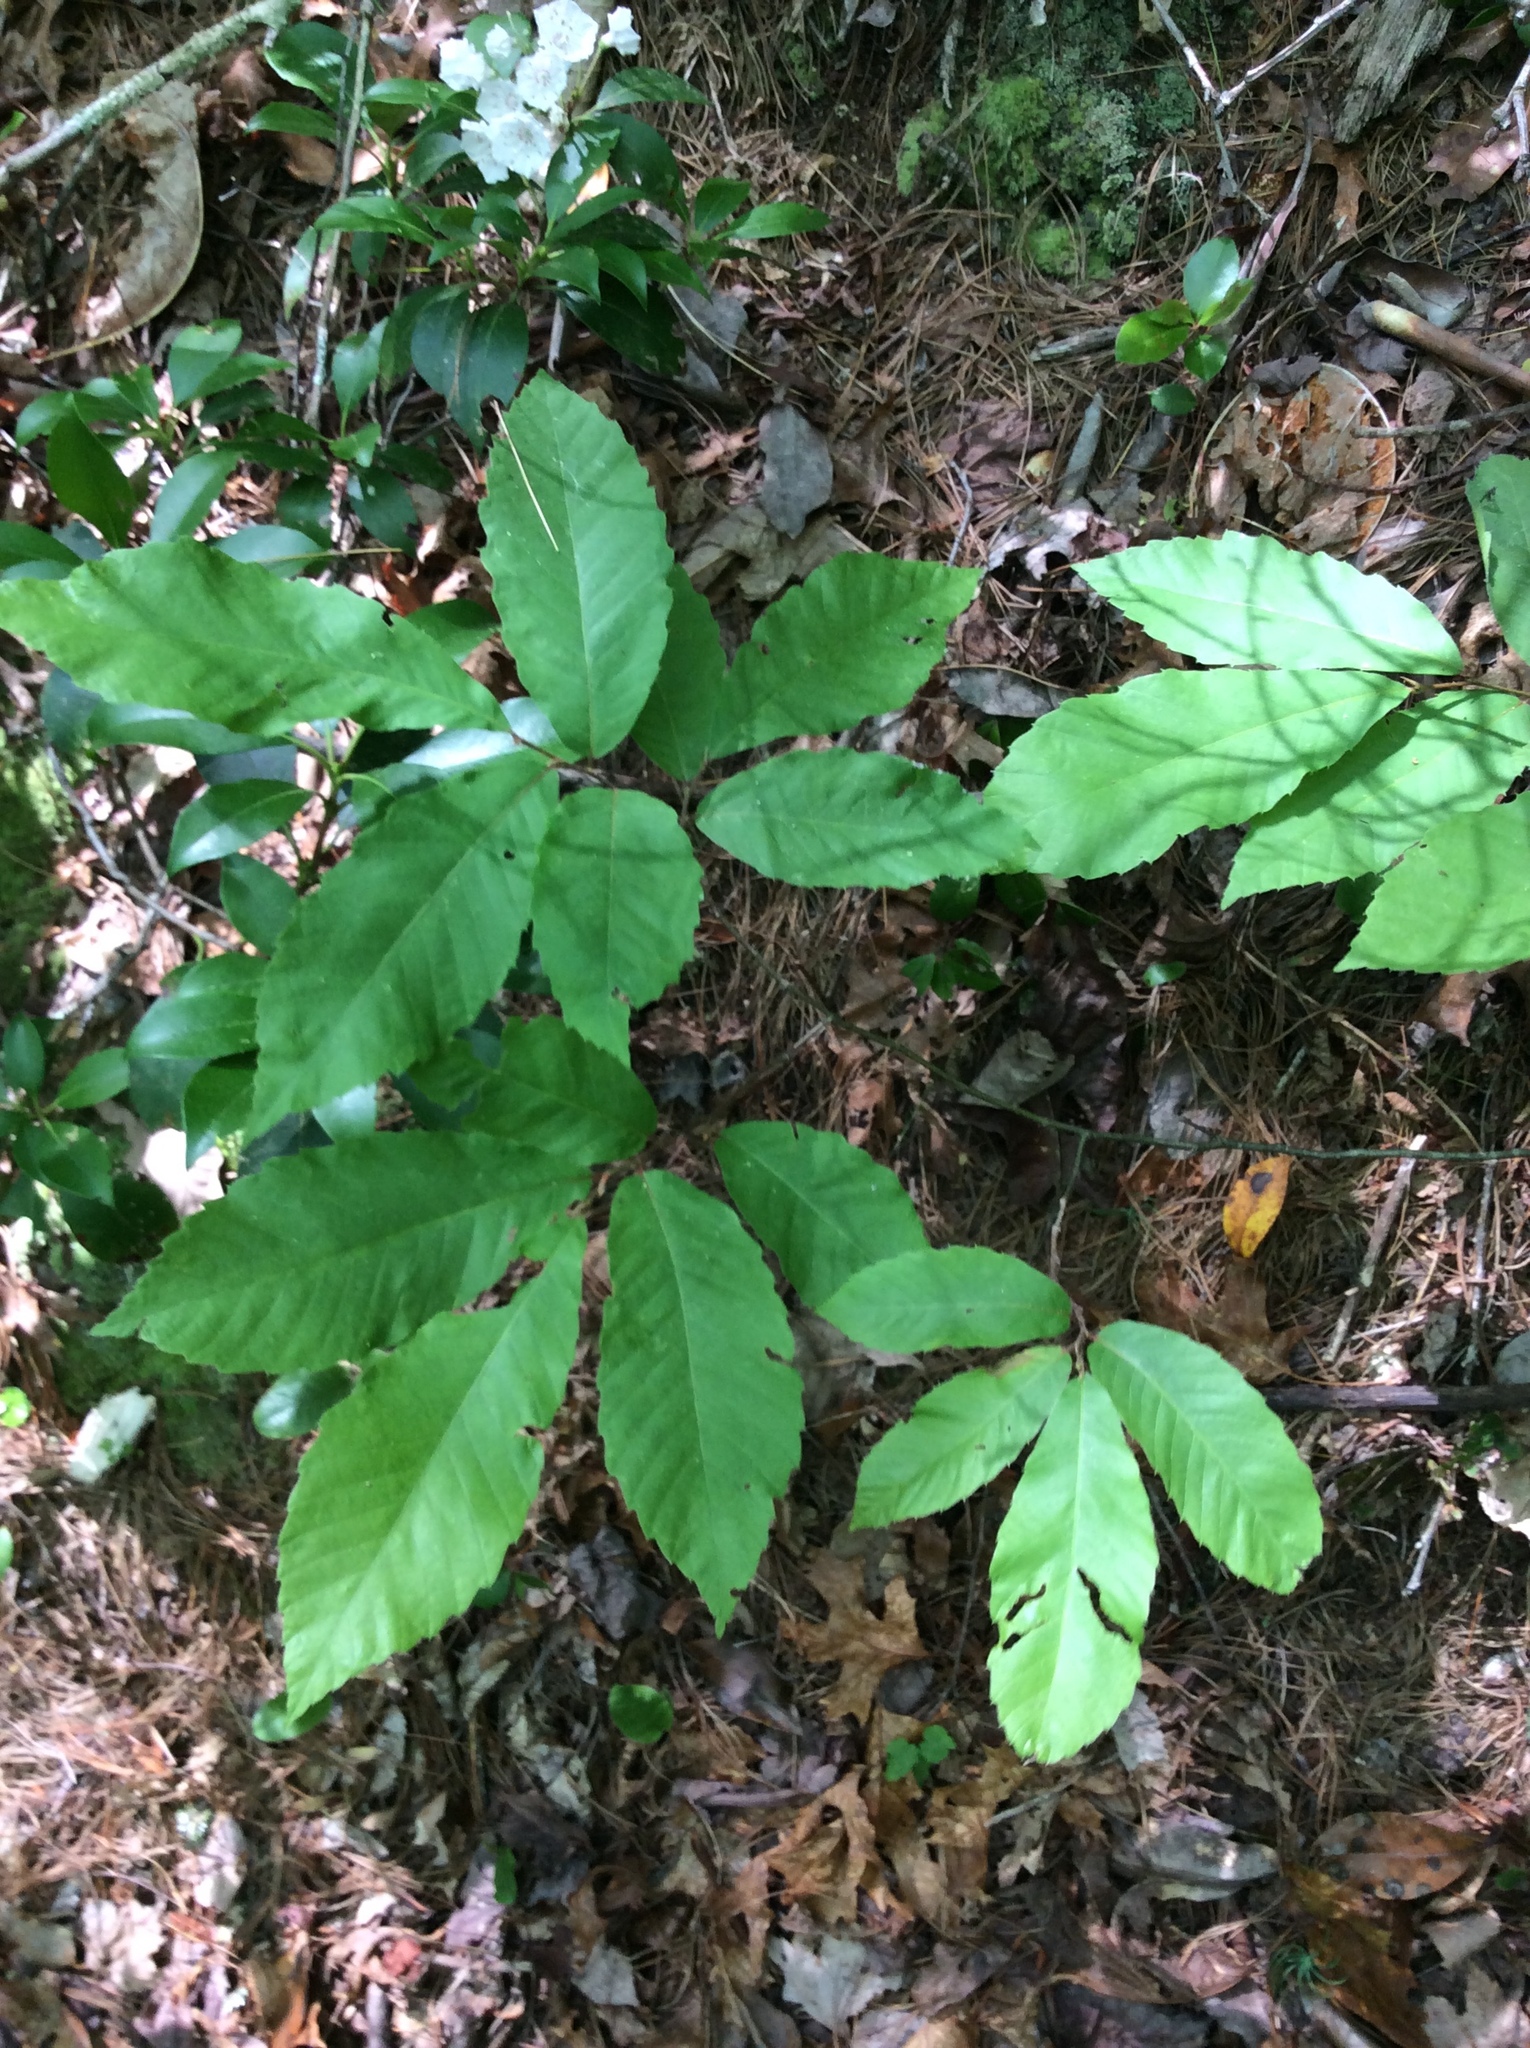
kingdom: Plantae
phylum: Tracheophyta
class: Magnoliopsida
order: Fagales
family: Fagaceae
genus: Castanea
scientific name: Castanea pumila
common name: Chinkapin
